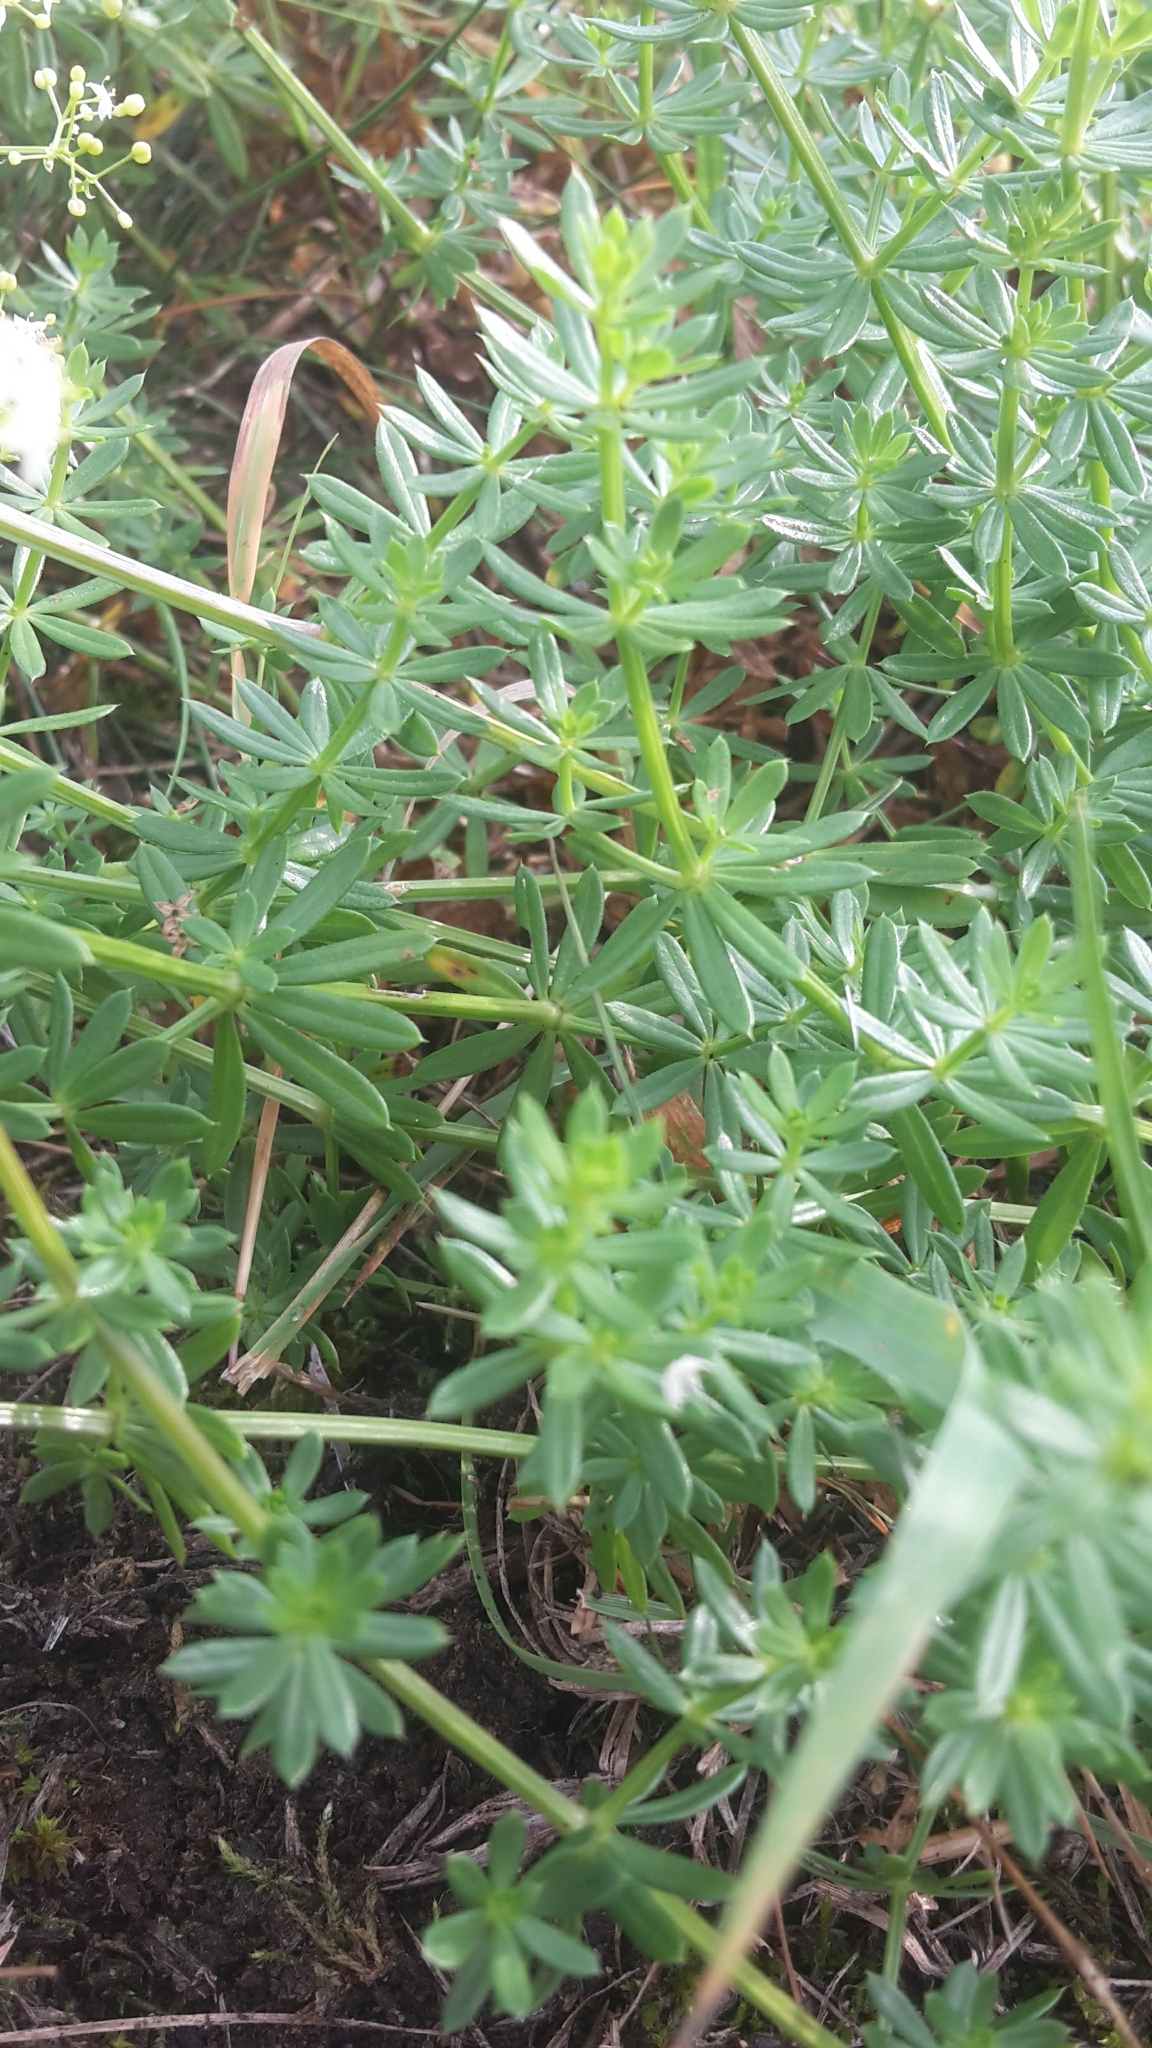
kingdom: Plantae
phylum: Tracheophyta
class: Magnoliopsida
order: Gentianales
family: Rubiaceae
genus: Galium
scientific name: Galium album
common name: White bedstraw
